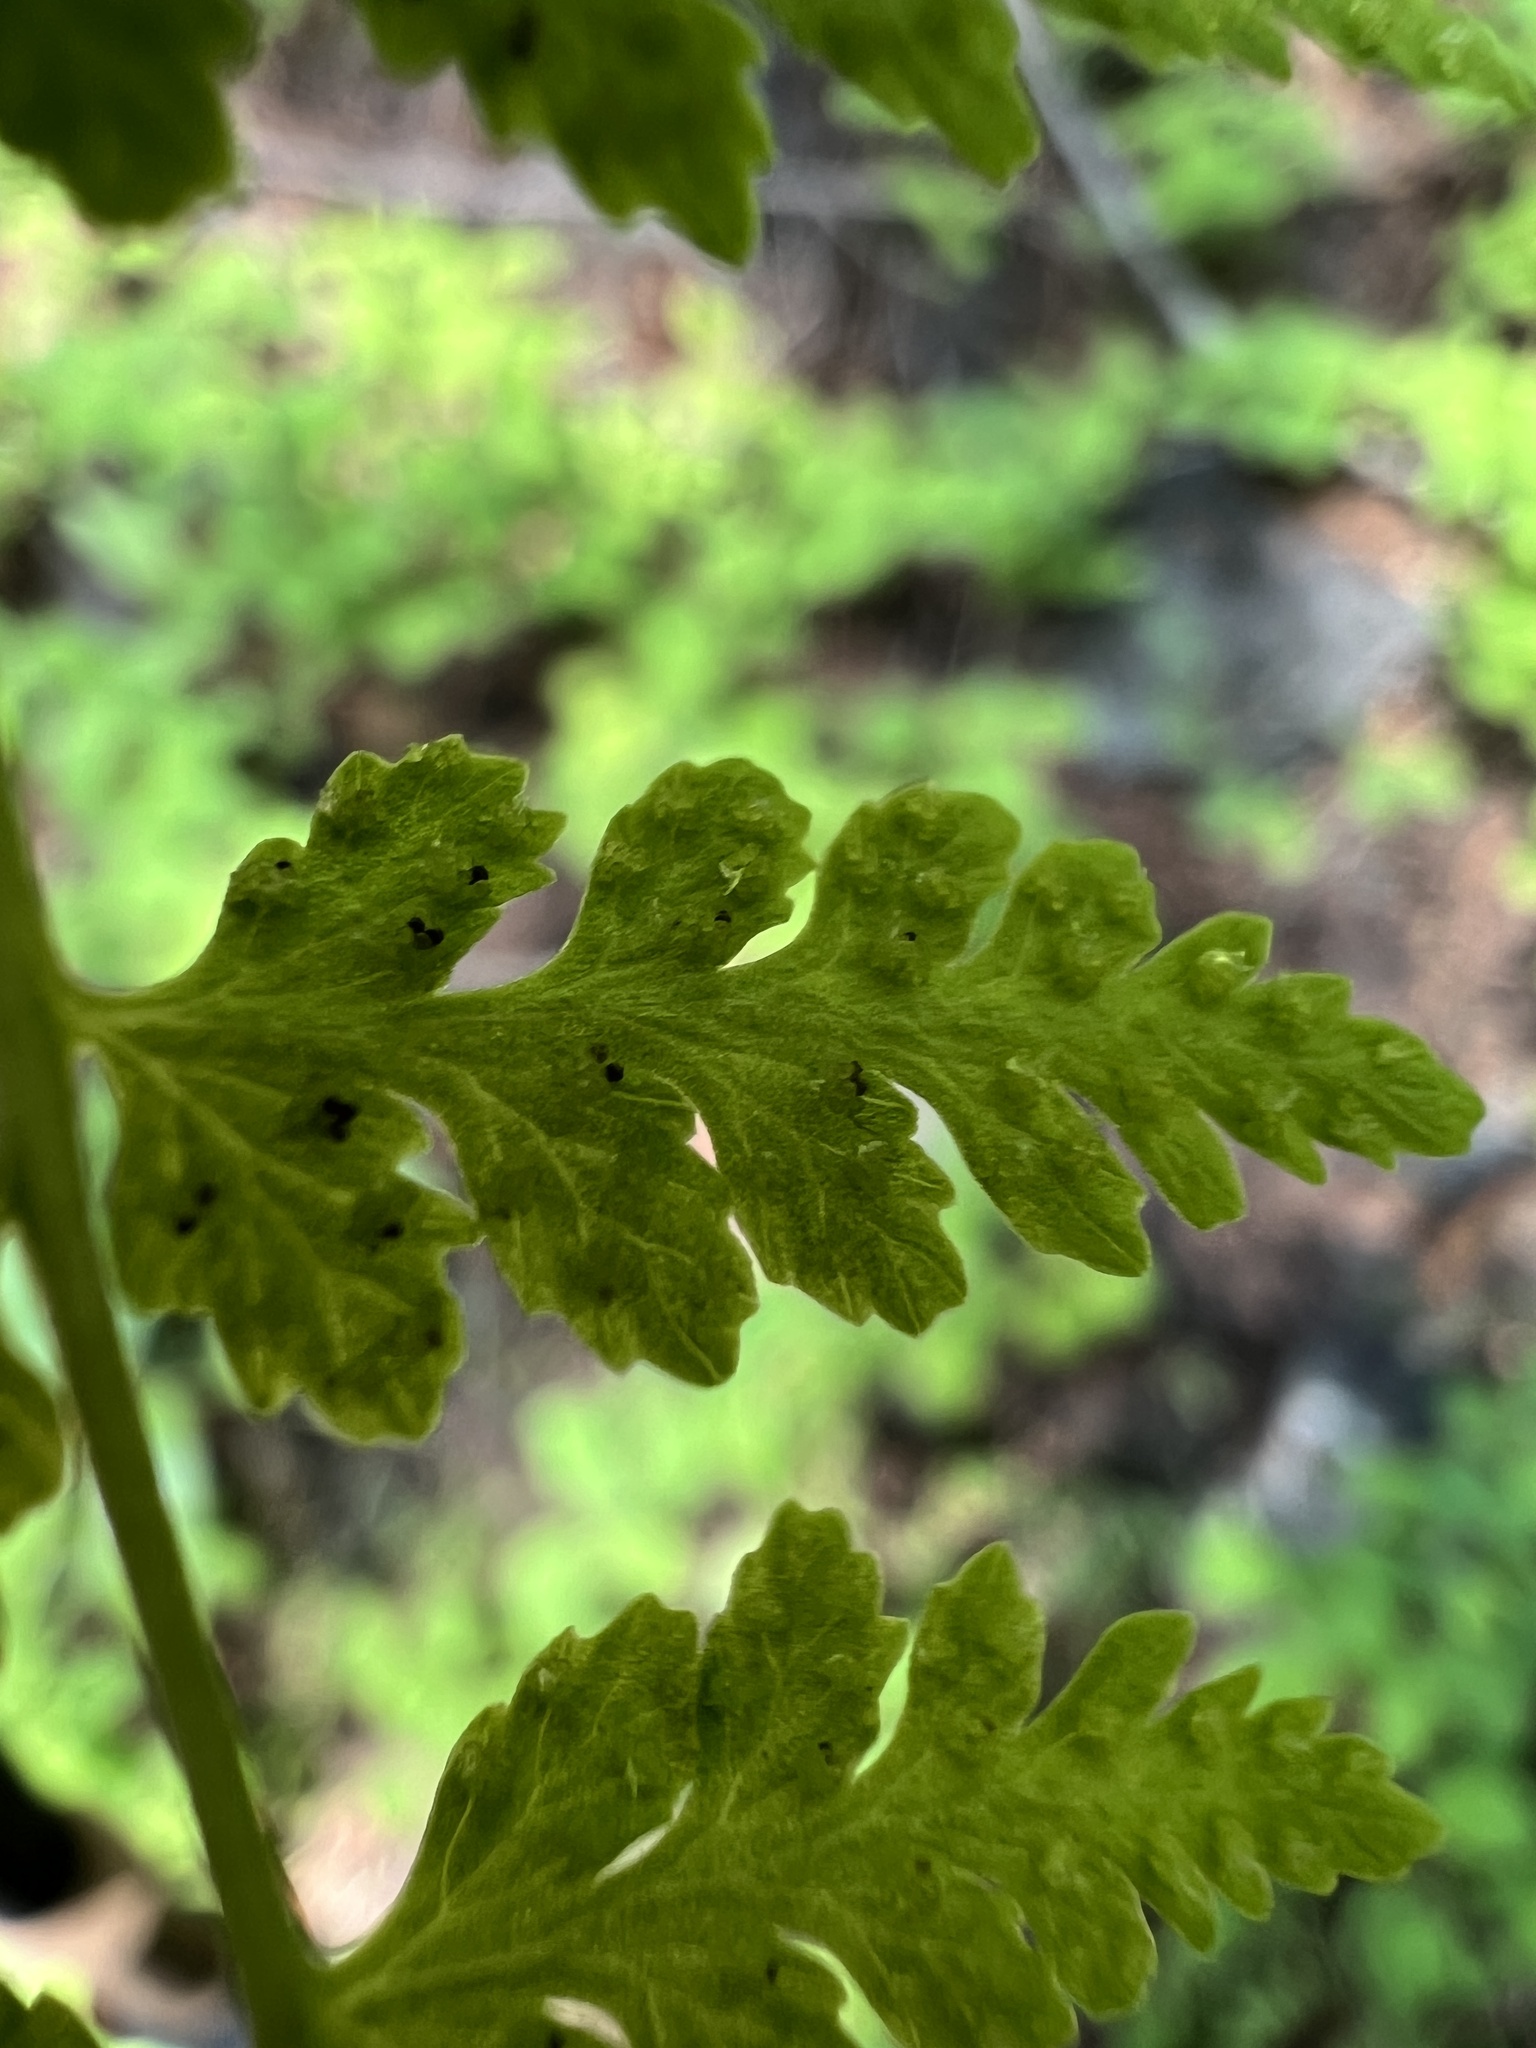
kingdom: Plantae
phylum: Tracheophyta
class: Polypodiopsida
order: Polypodiales
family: Cystopteridaceae
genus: Cystopteris
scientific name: Cystopteris fragilis
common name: Brittle bladder fern
